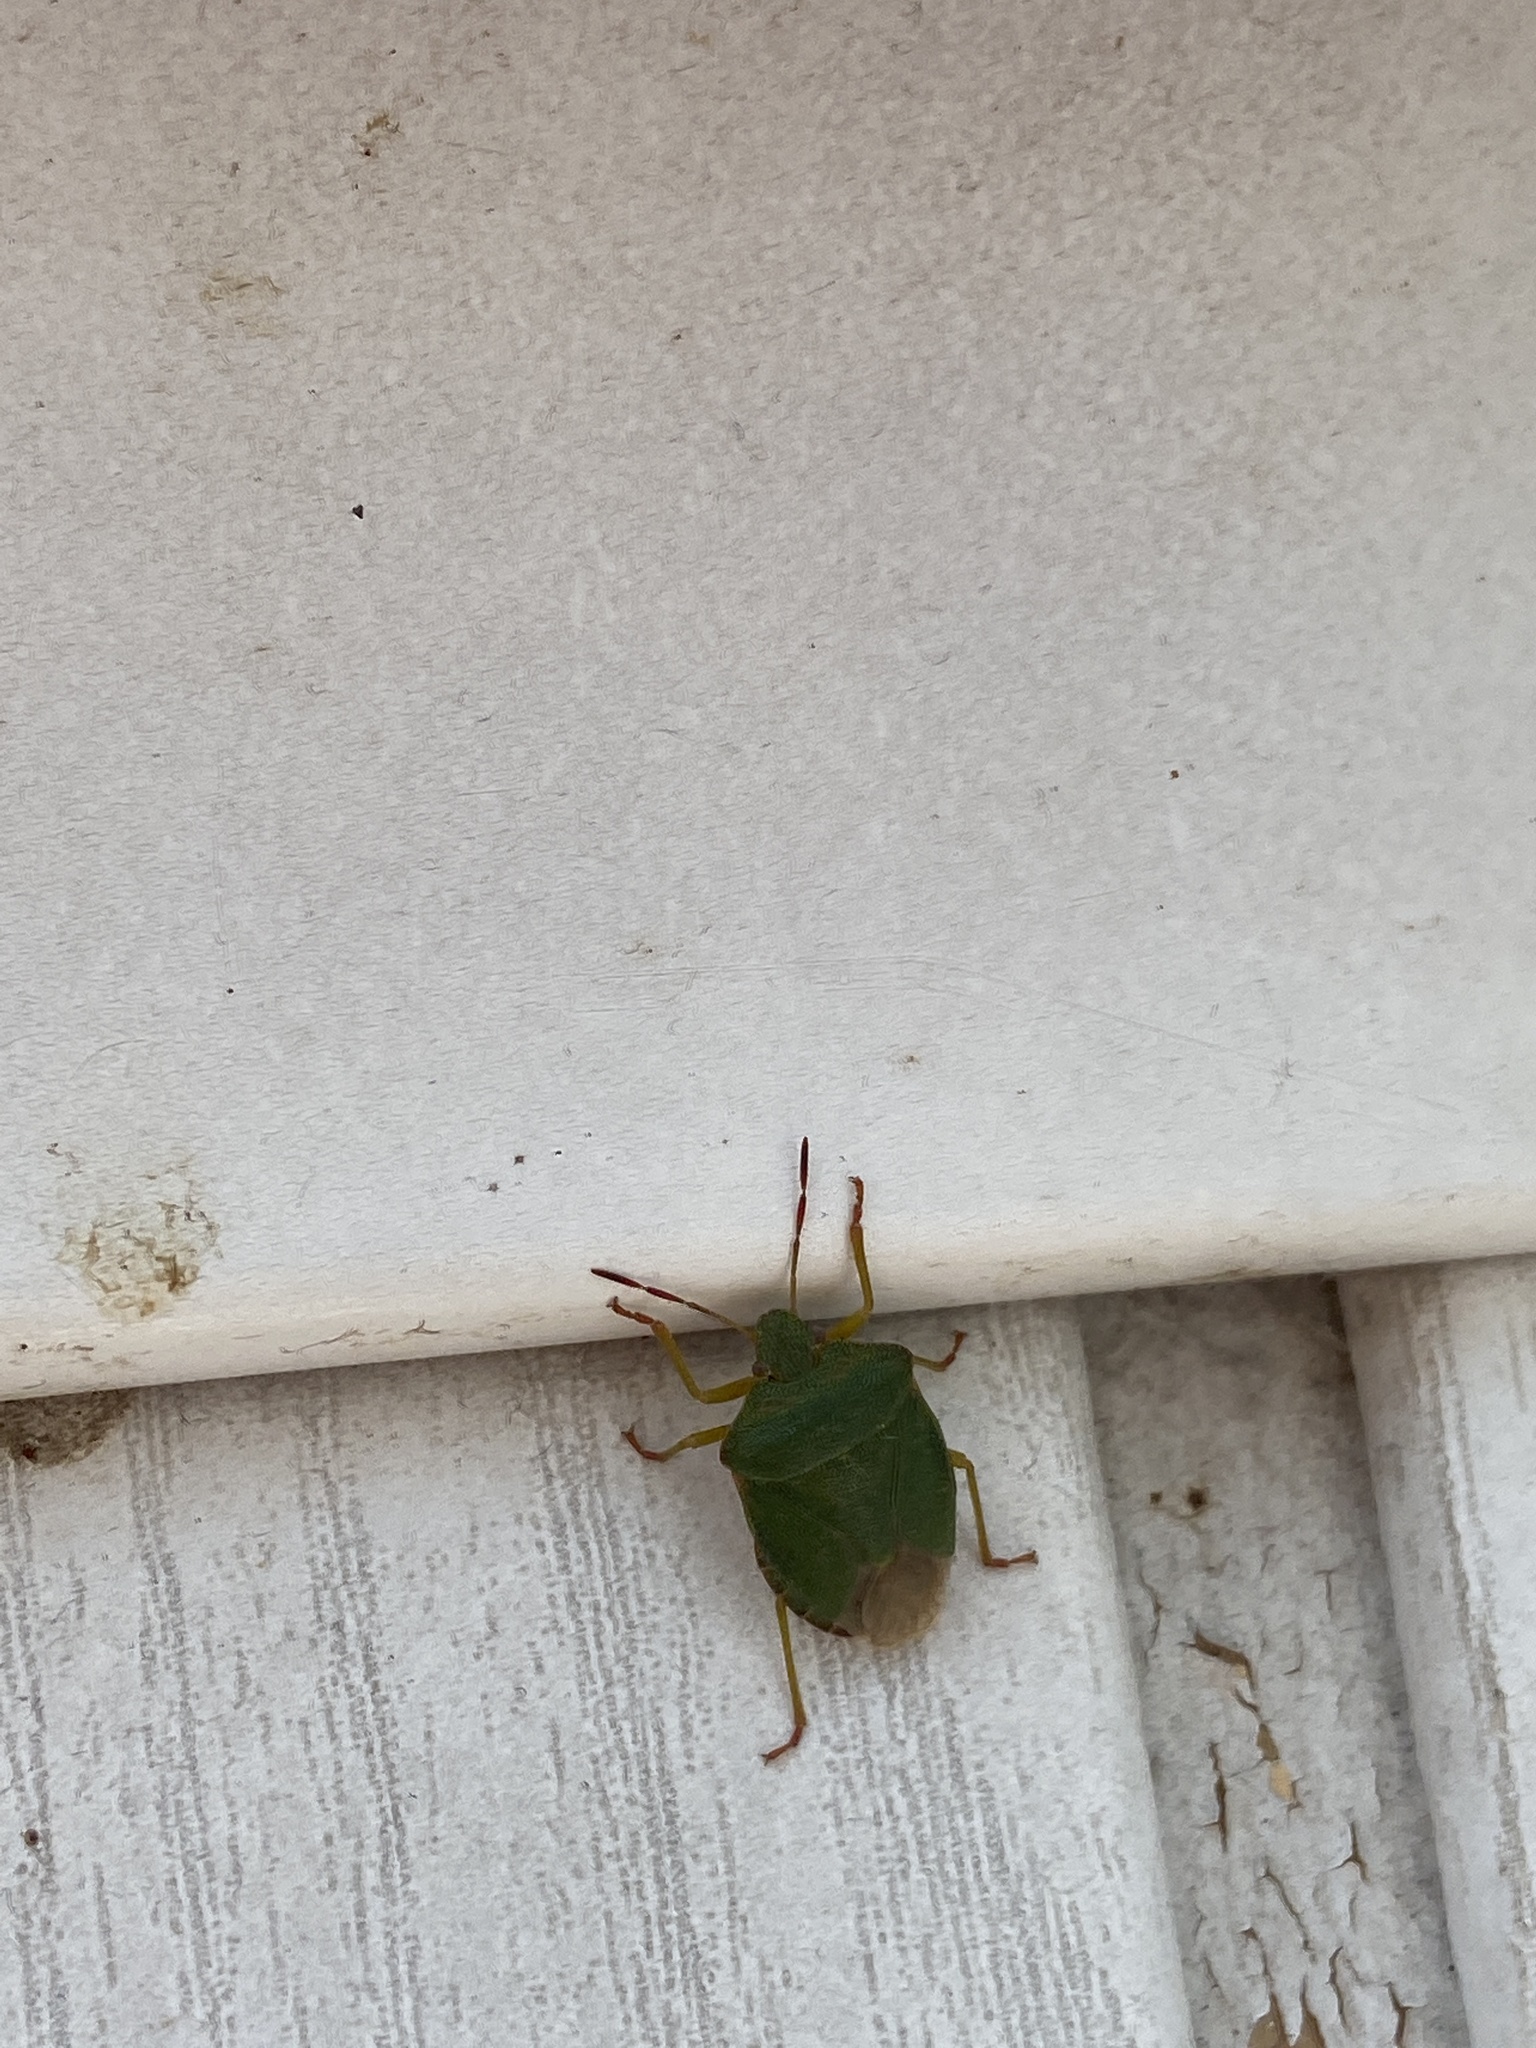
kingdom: Animalia
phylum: Arthropoda
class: Insecta
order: Hemiptera
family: Pentatomidae
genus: Palomena
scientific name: Palomena prasina
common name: Green shieldbug
